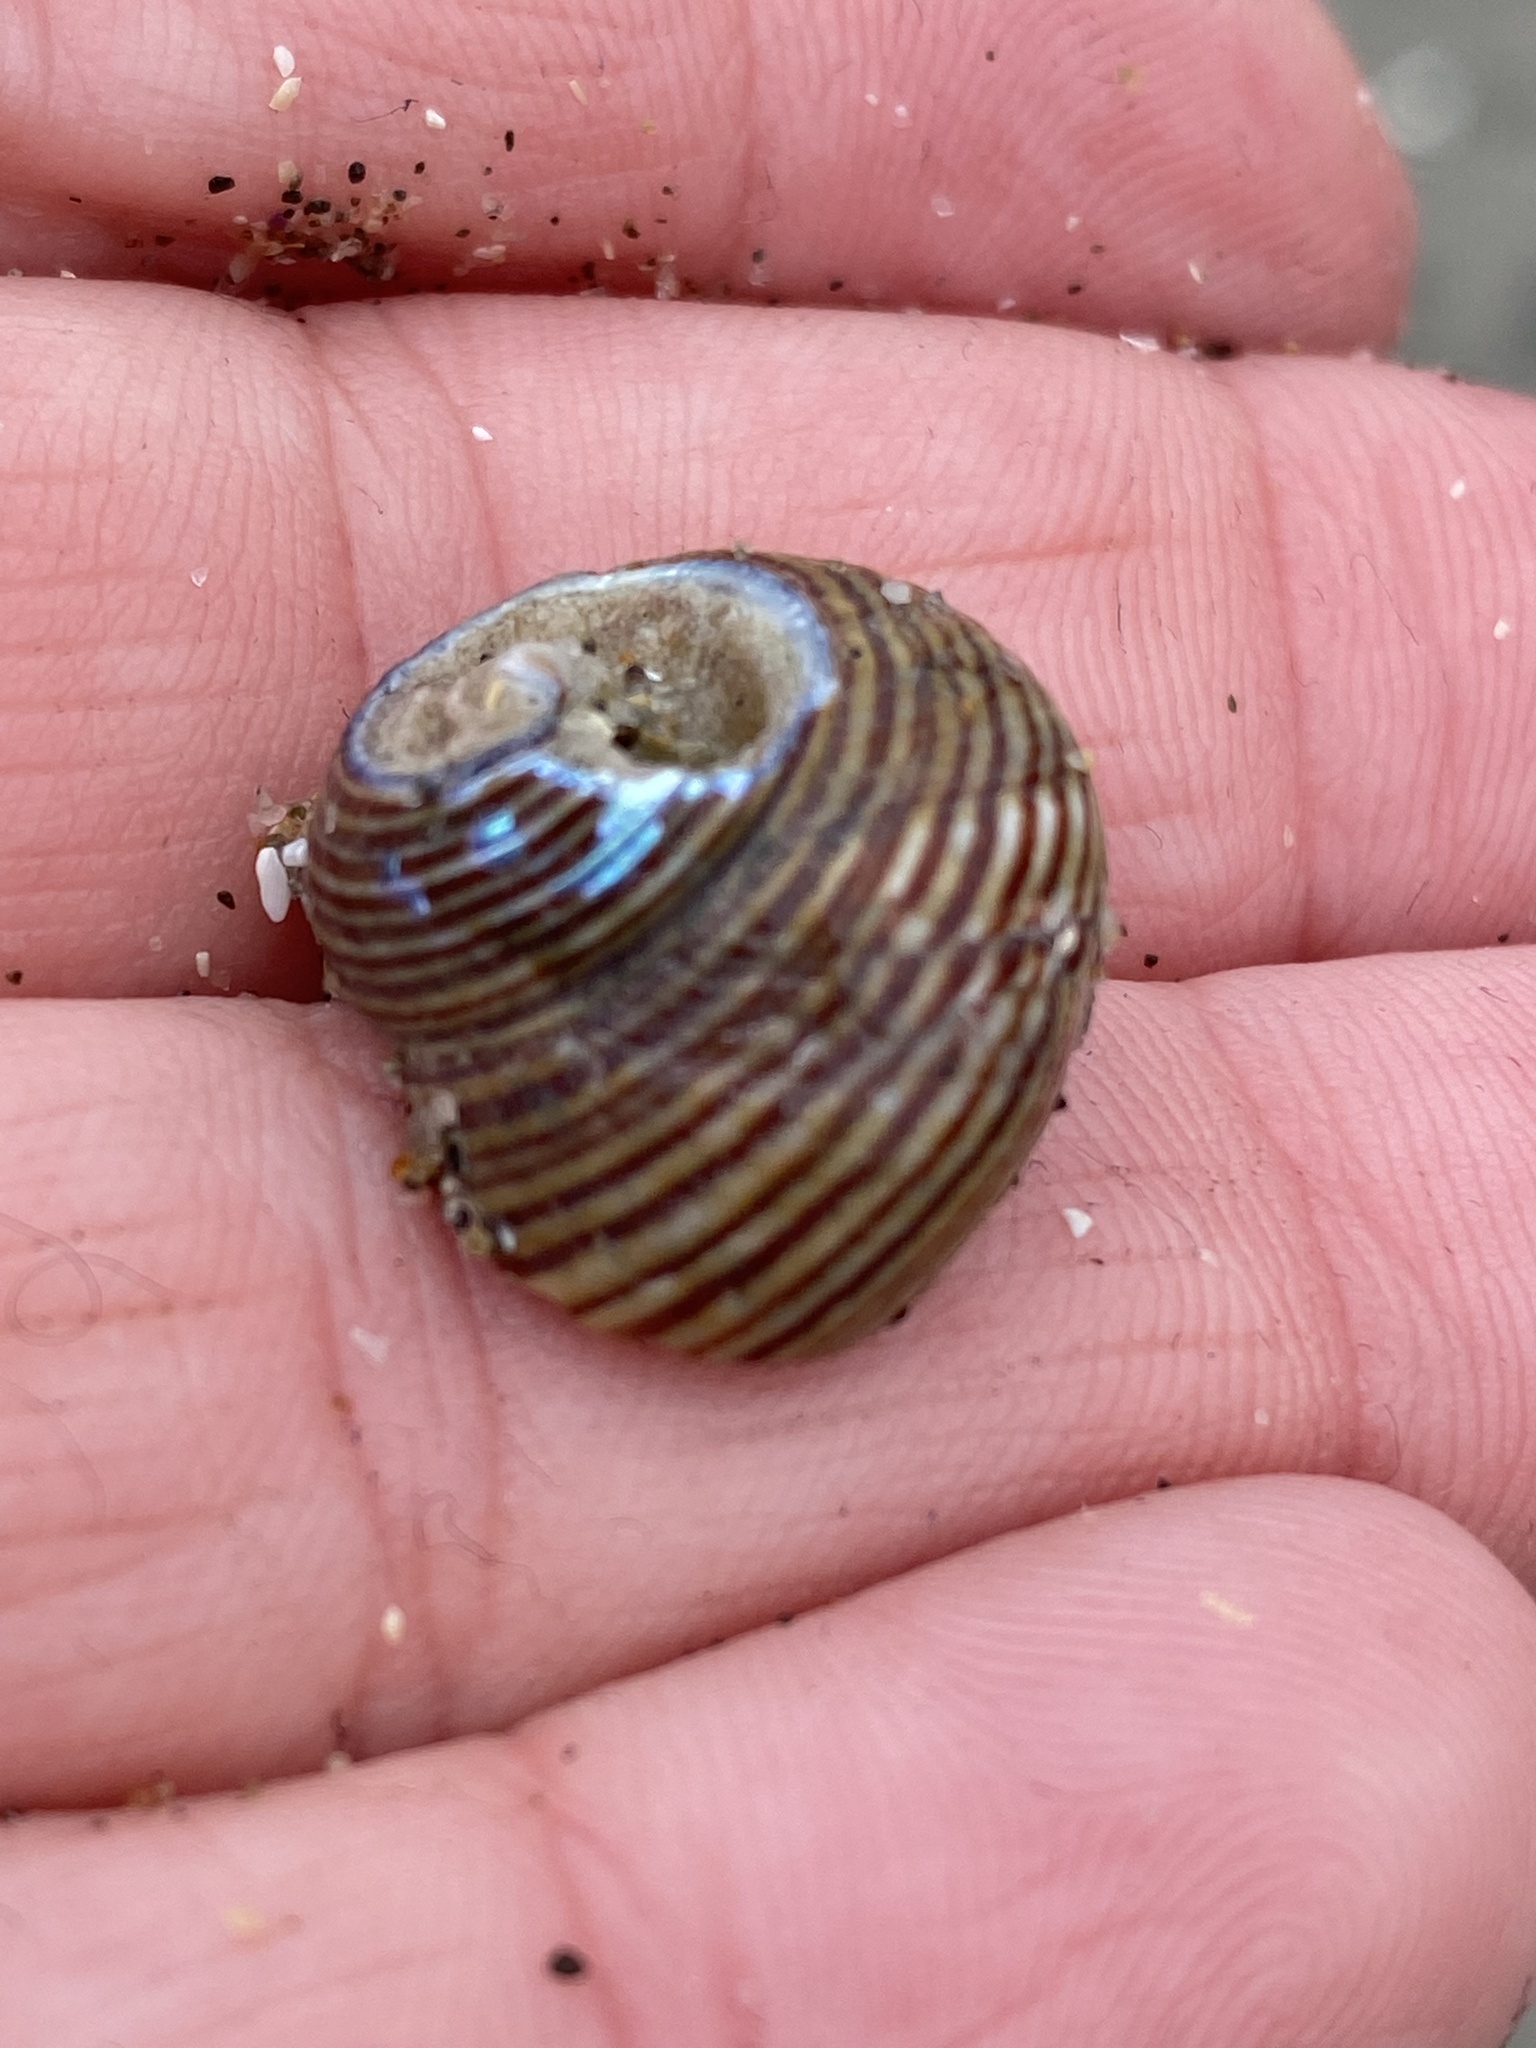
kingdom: Animalia
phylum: Mollusca
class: Gastropoda
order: Trochida
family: Calliostomatidae
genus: Calliostoma
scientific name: Calliostoma ligatum
